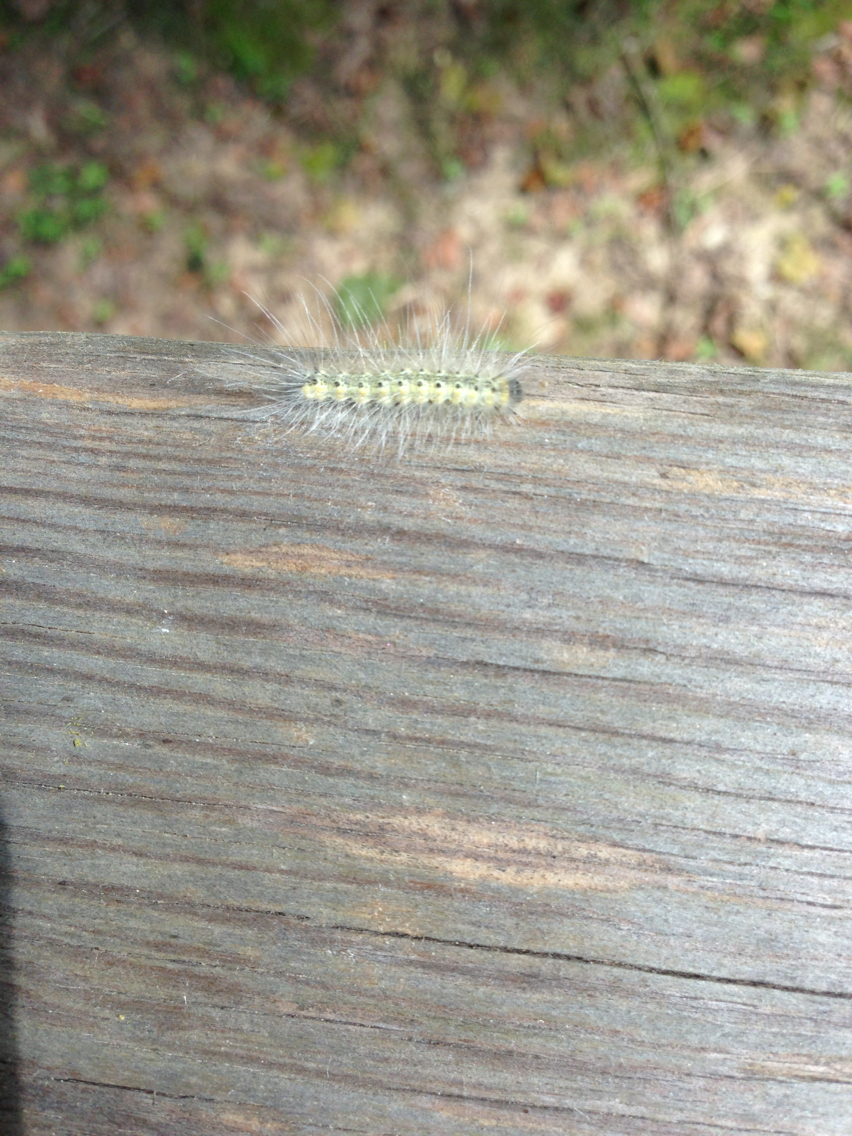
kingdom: Animalia
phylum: Arthropoda
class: Insecta
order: Lepidoptera
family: Erebidae
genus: Hyphantria
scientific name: Hyphantria cunea
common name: American white moth
